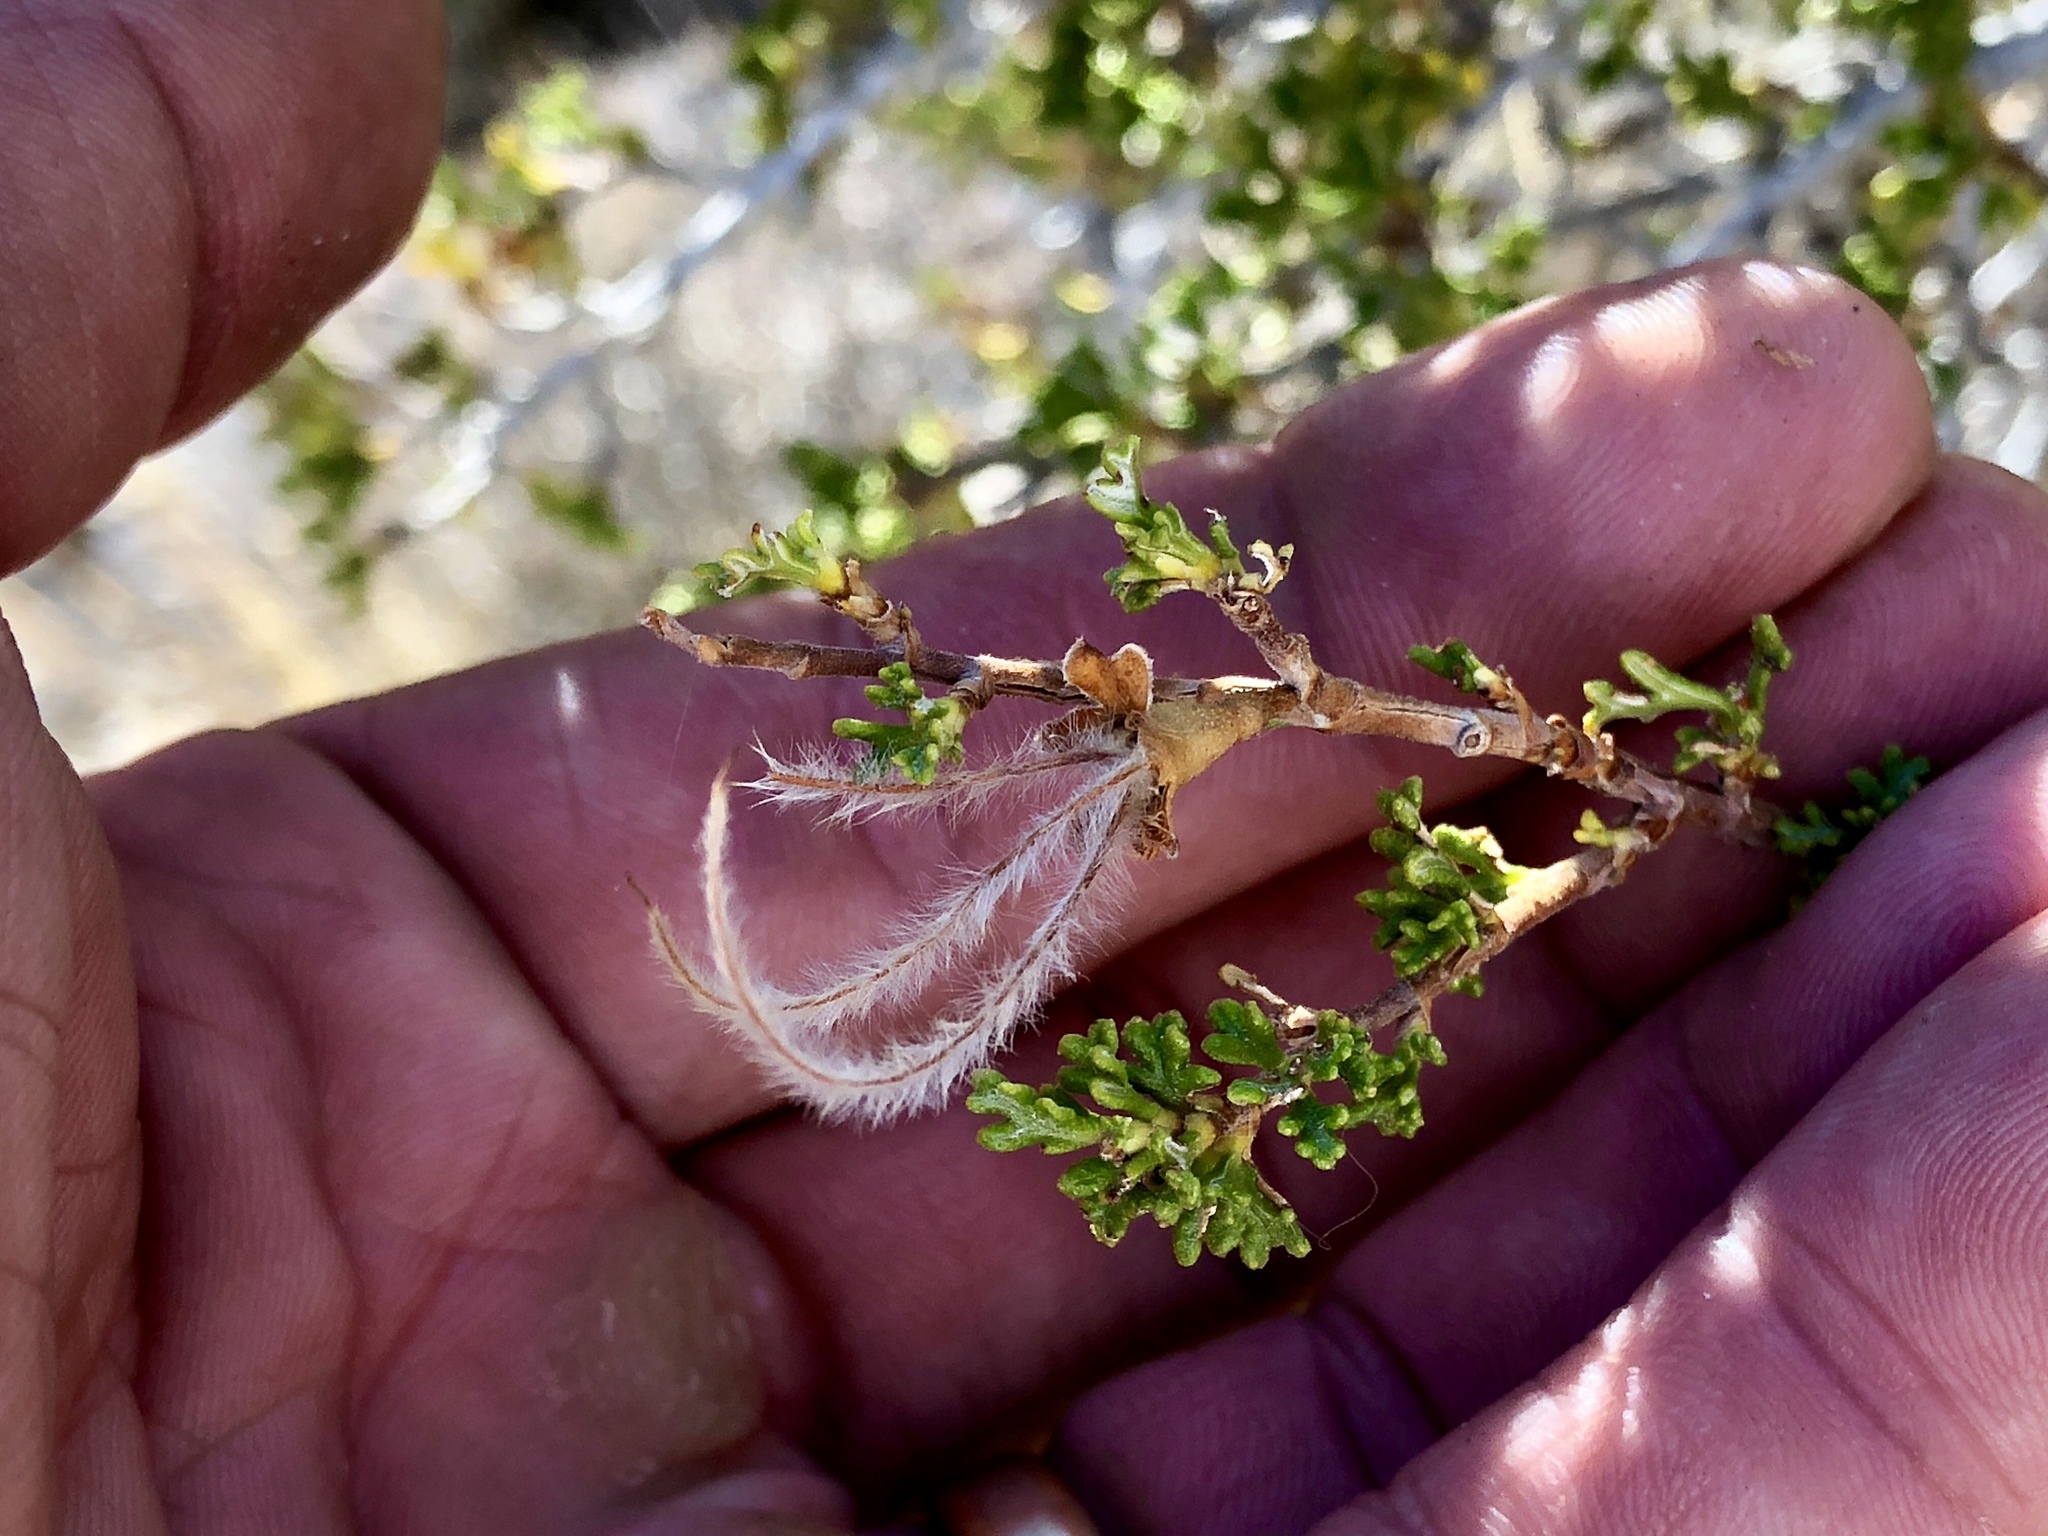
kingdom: Plantae
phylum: Tracheophyta
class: Magnoliopsida
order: Rosales
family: Rosaceae
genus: Purshia
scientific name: Purshia stansburiana
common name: Stansbury's cliffrose
